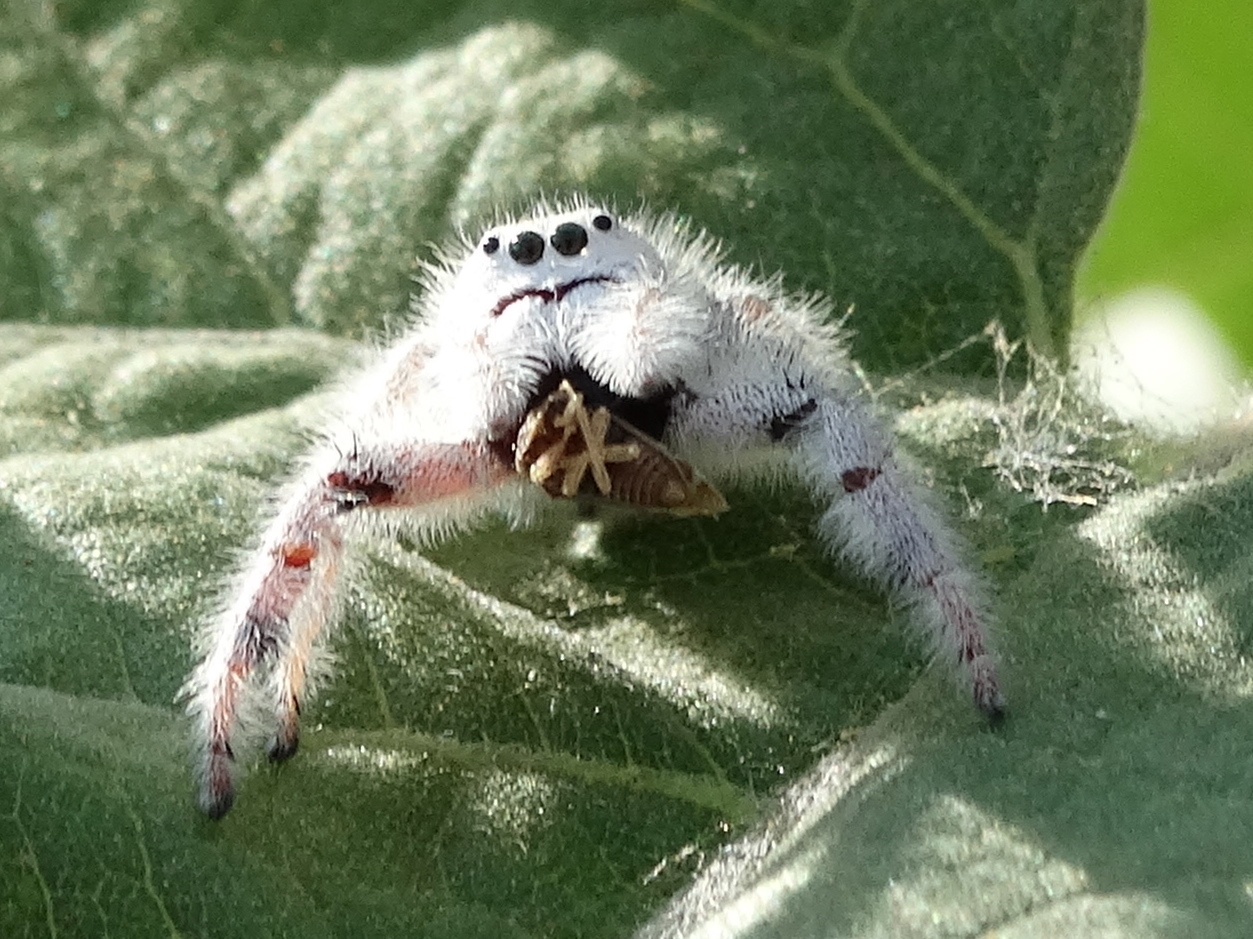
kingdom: Animalia
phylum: Arthropoda
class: Arachnida
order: Araneae
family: Salticidae
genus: Paraphidippus
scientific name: Paraphidippus fartilis
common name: Jumping spiders
